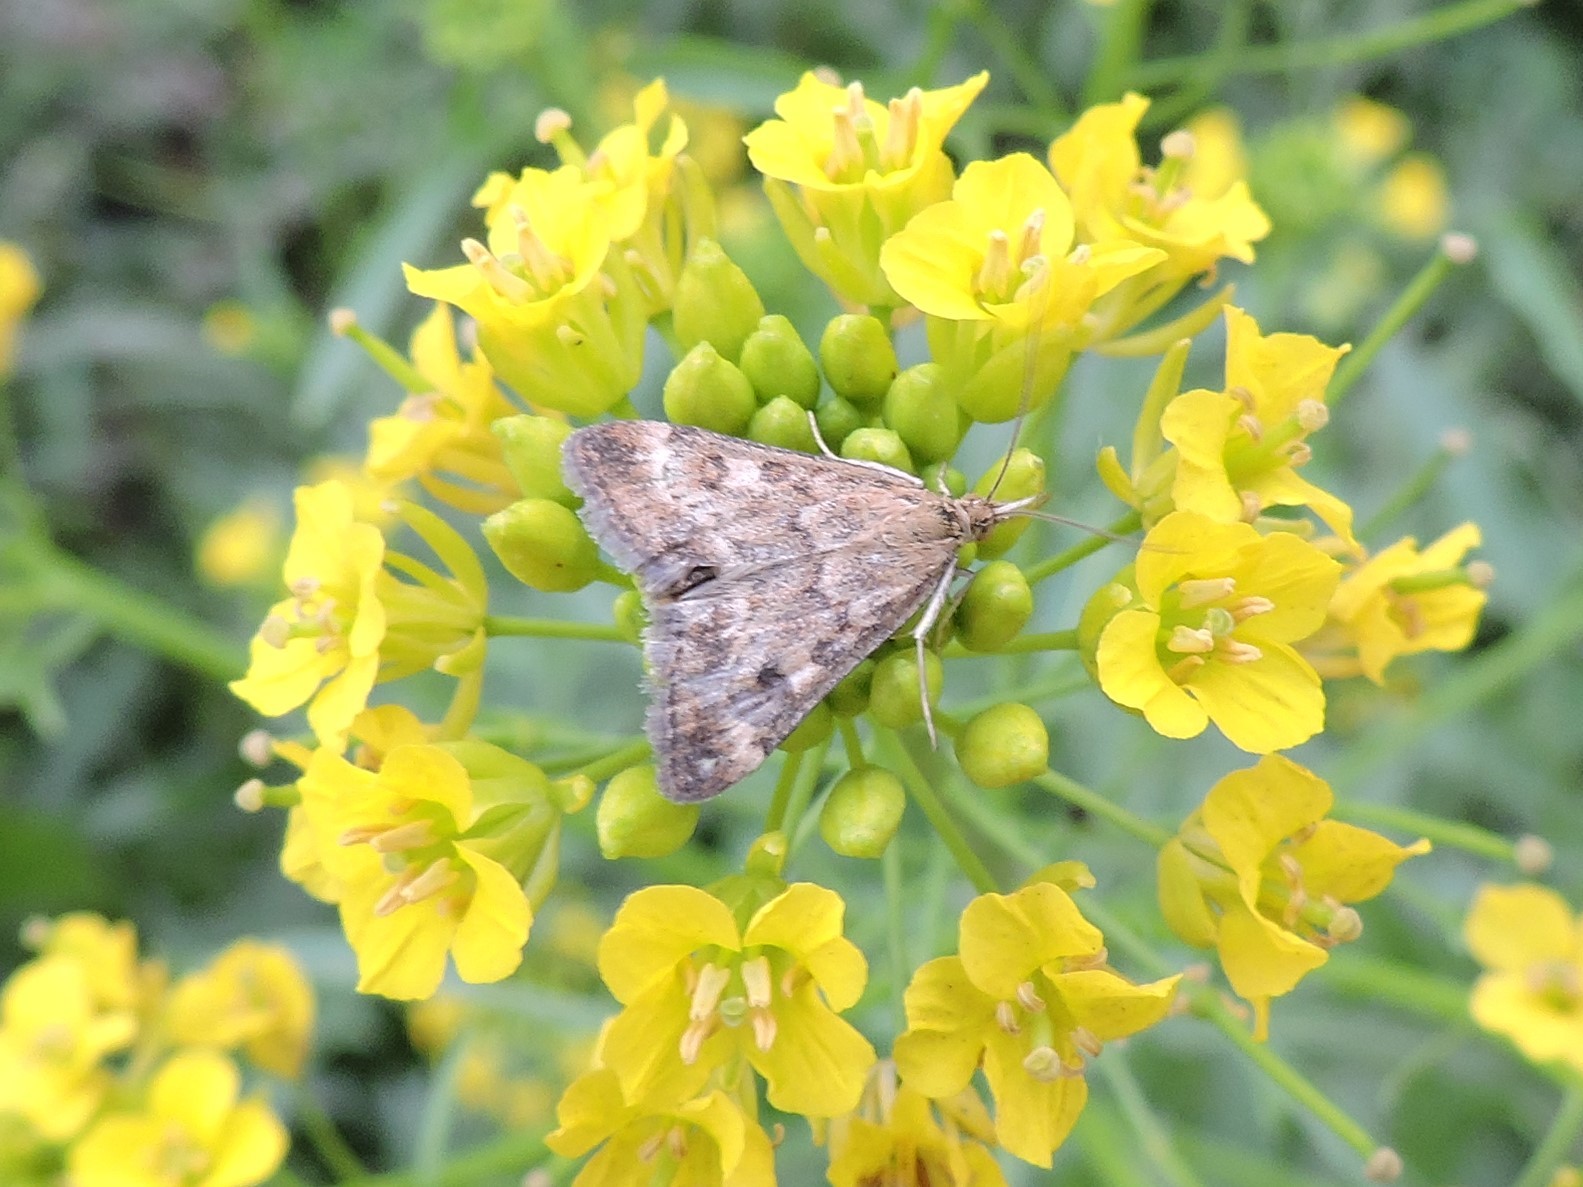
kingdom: Animalia
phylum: Arthropoda
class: Insecta
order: Lepidoptera
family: Crambidae
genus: Pyrausta
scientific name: Pyrausta despicata
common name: Straw-barred pearl
